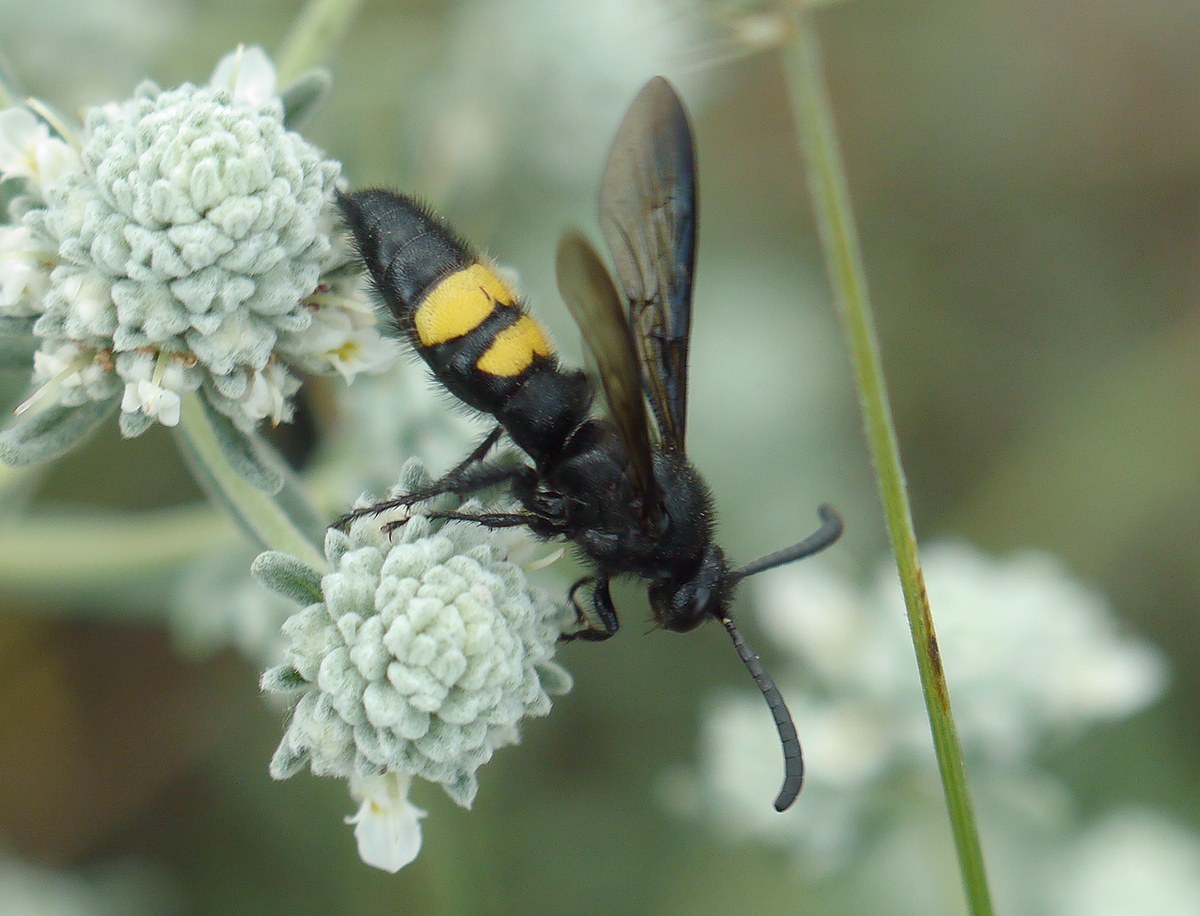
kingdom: Animalia
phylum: Arthropoda
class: Insecta
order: Hymenoptera
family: Scoliidae
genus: Scolia
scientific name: Scolia hirta
